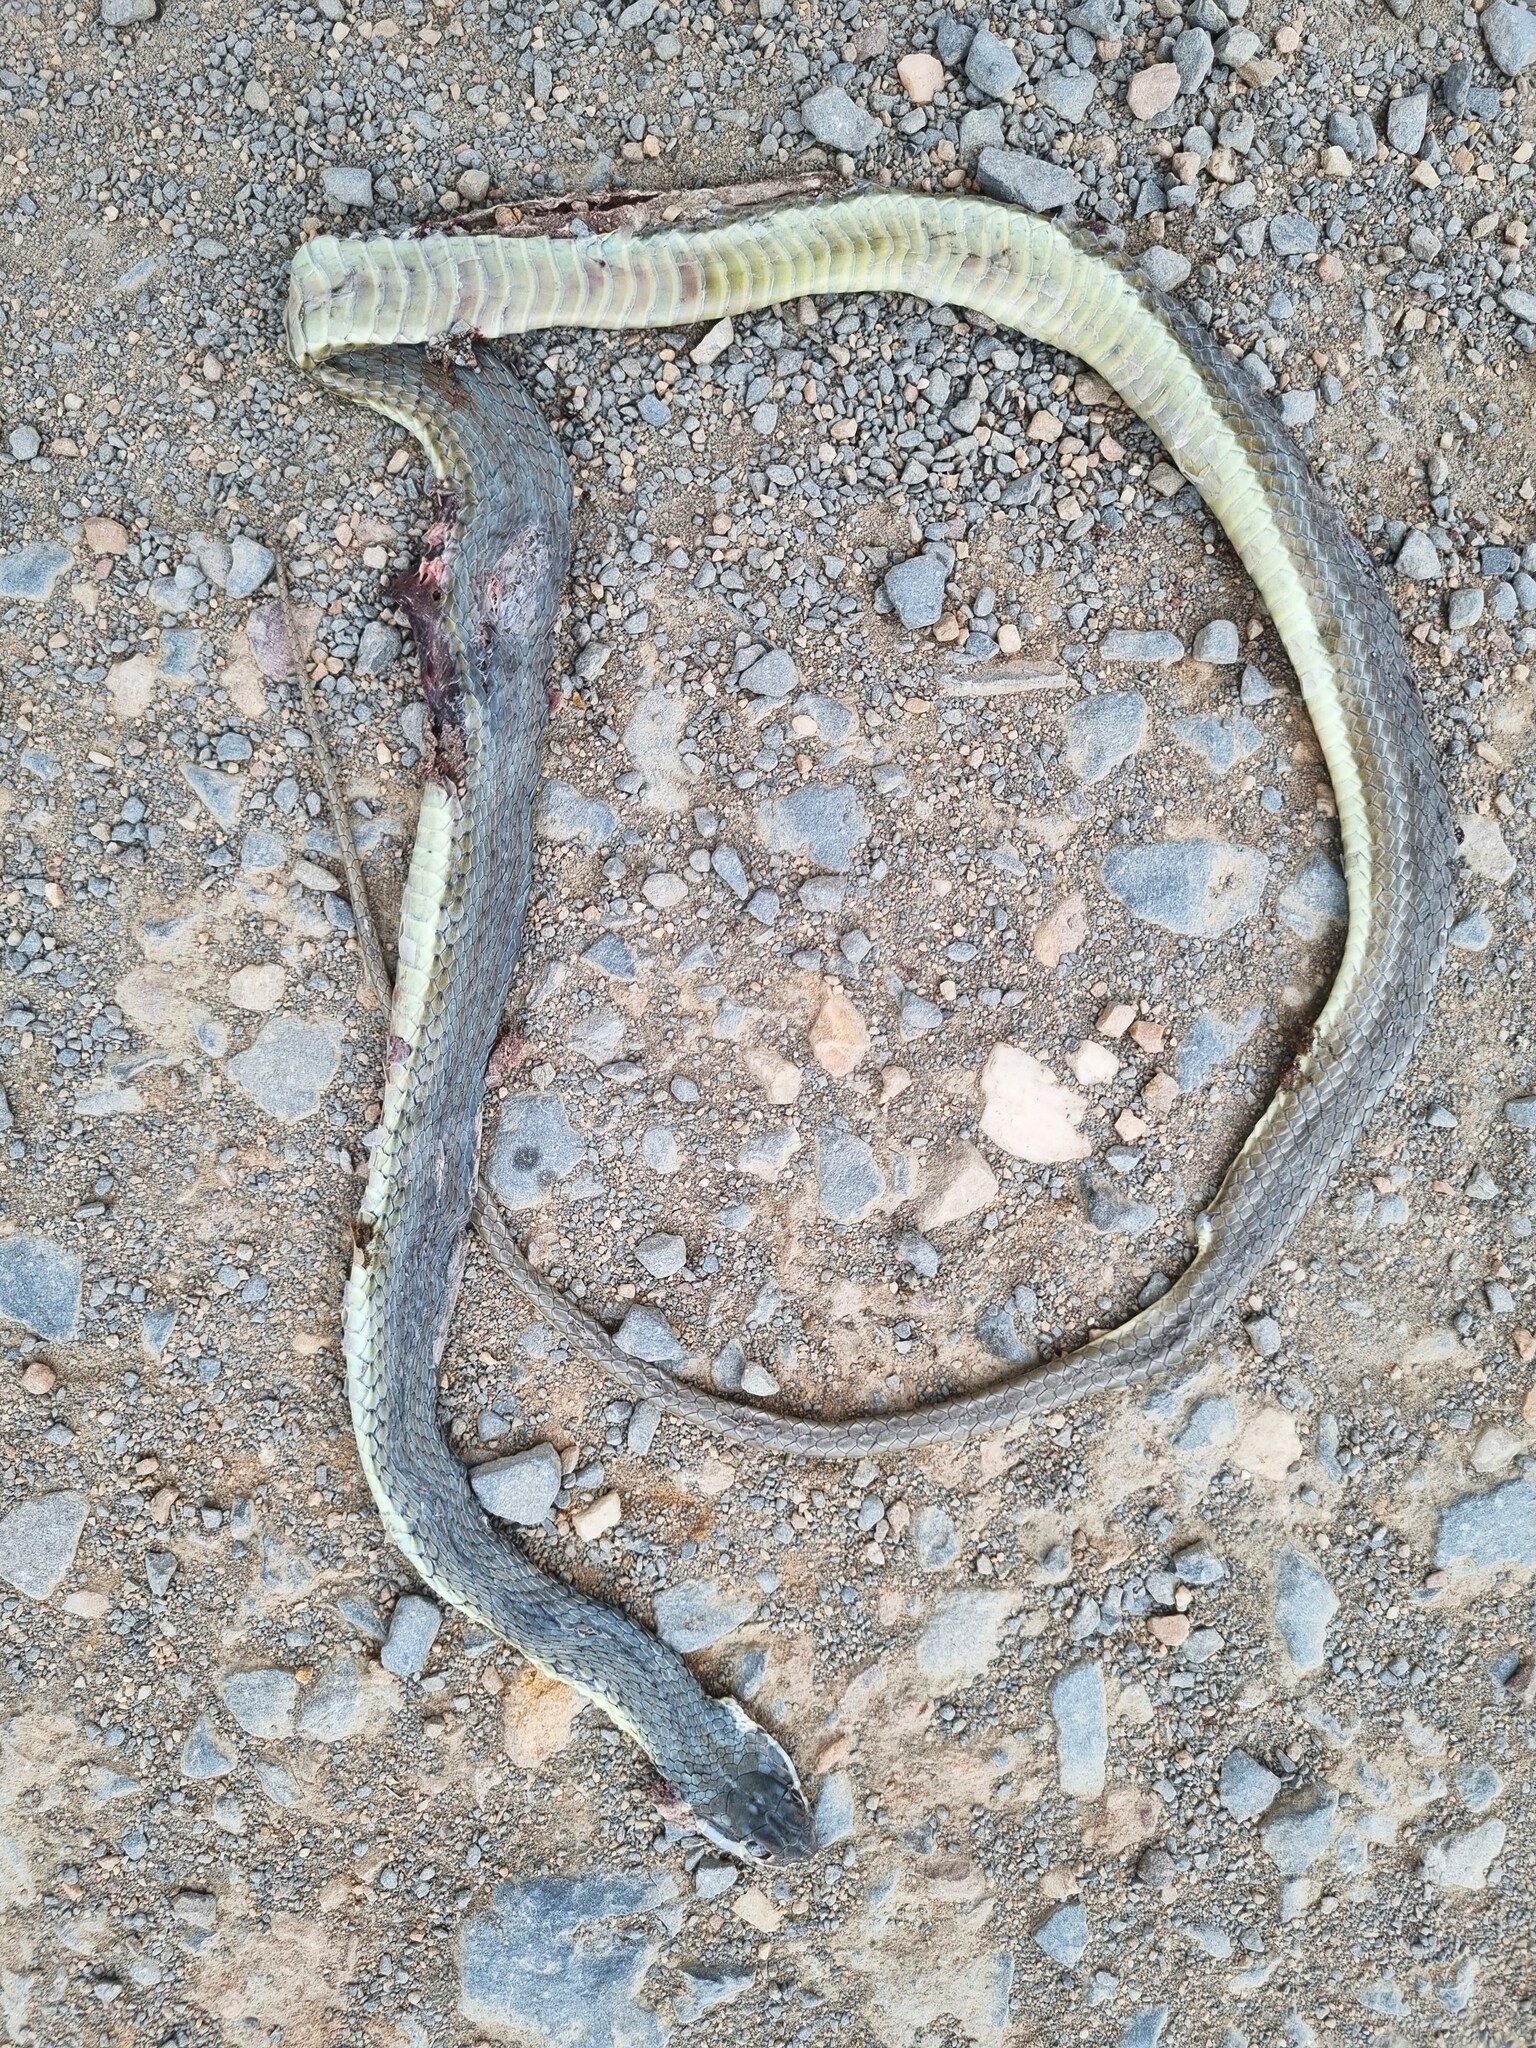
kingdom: Animalia
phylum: Chordata
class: Squamata
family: Psammophiidae
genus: Psammophis
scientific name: Psammophis notostictus
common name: Karoo sand snake
